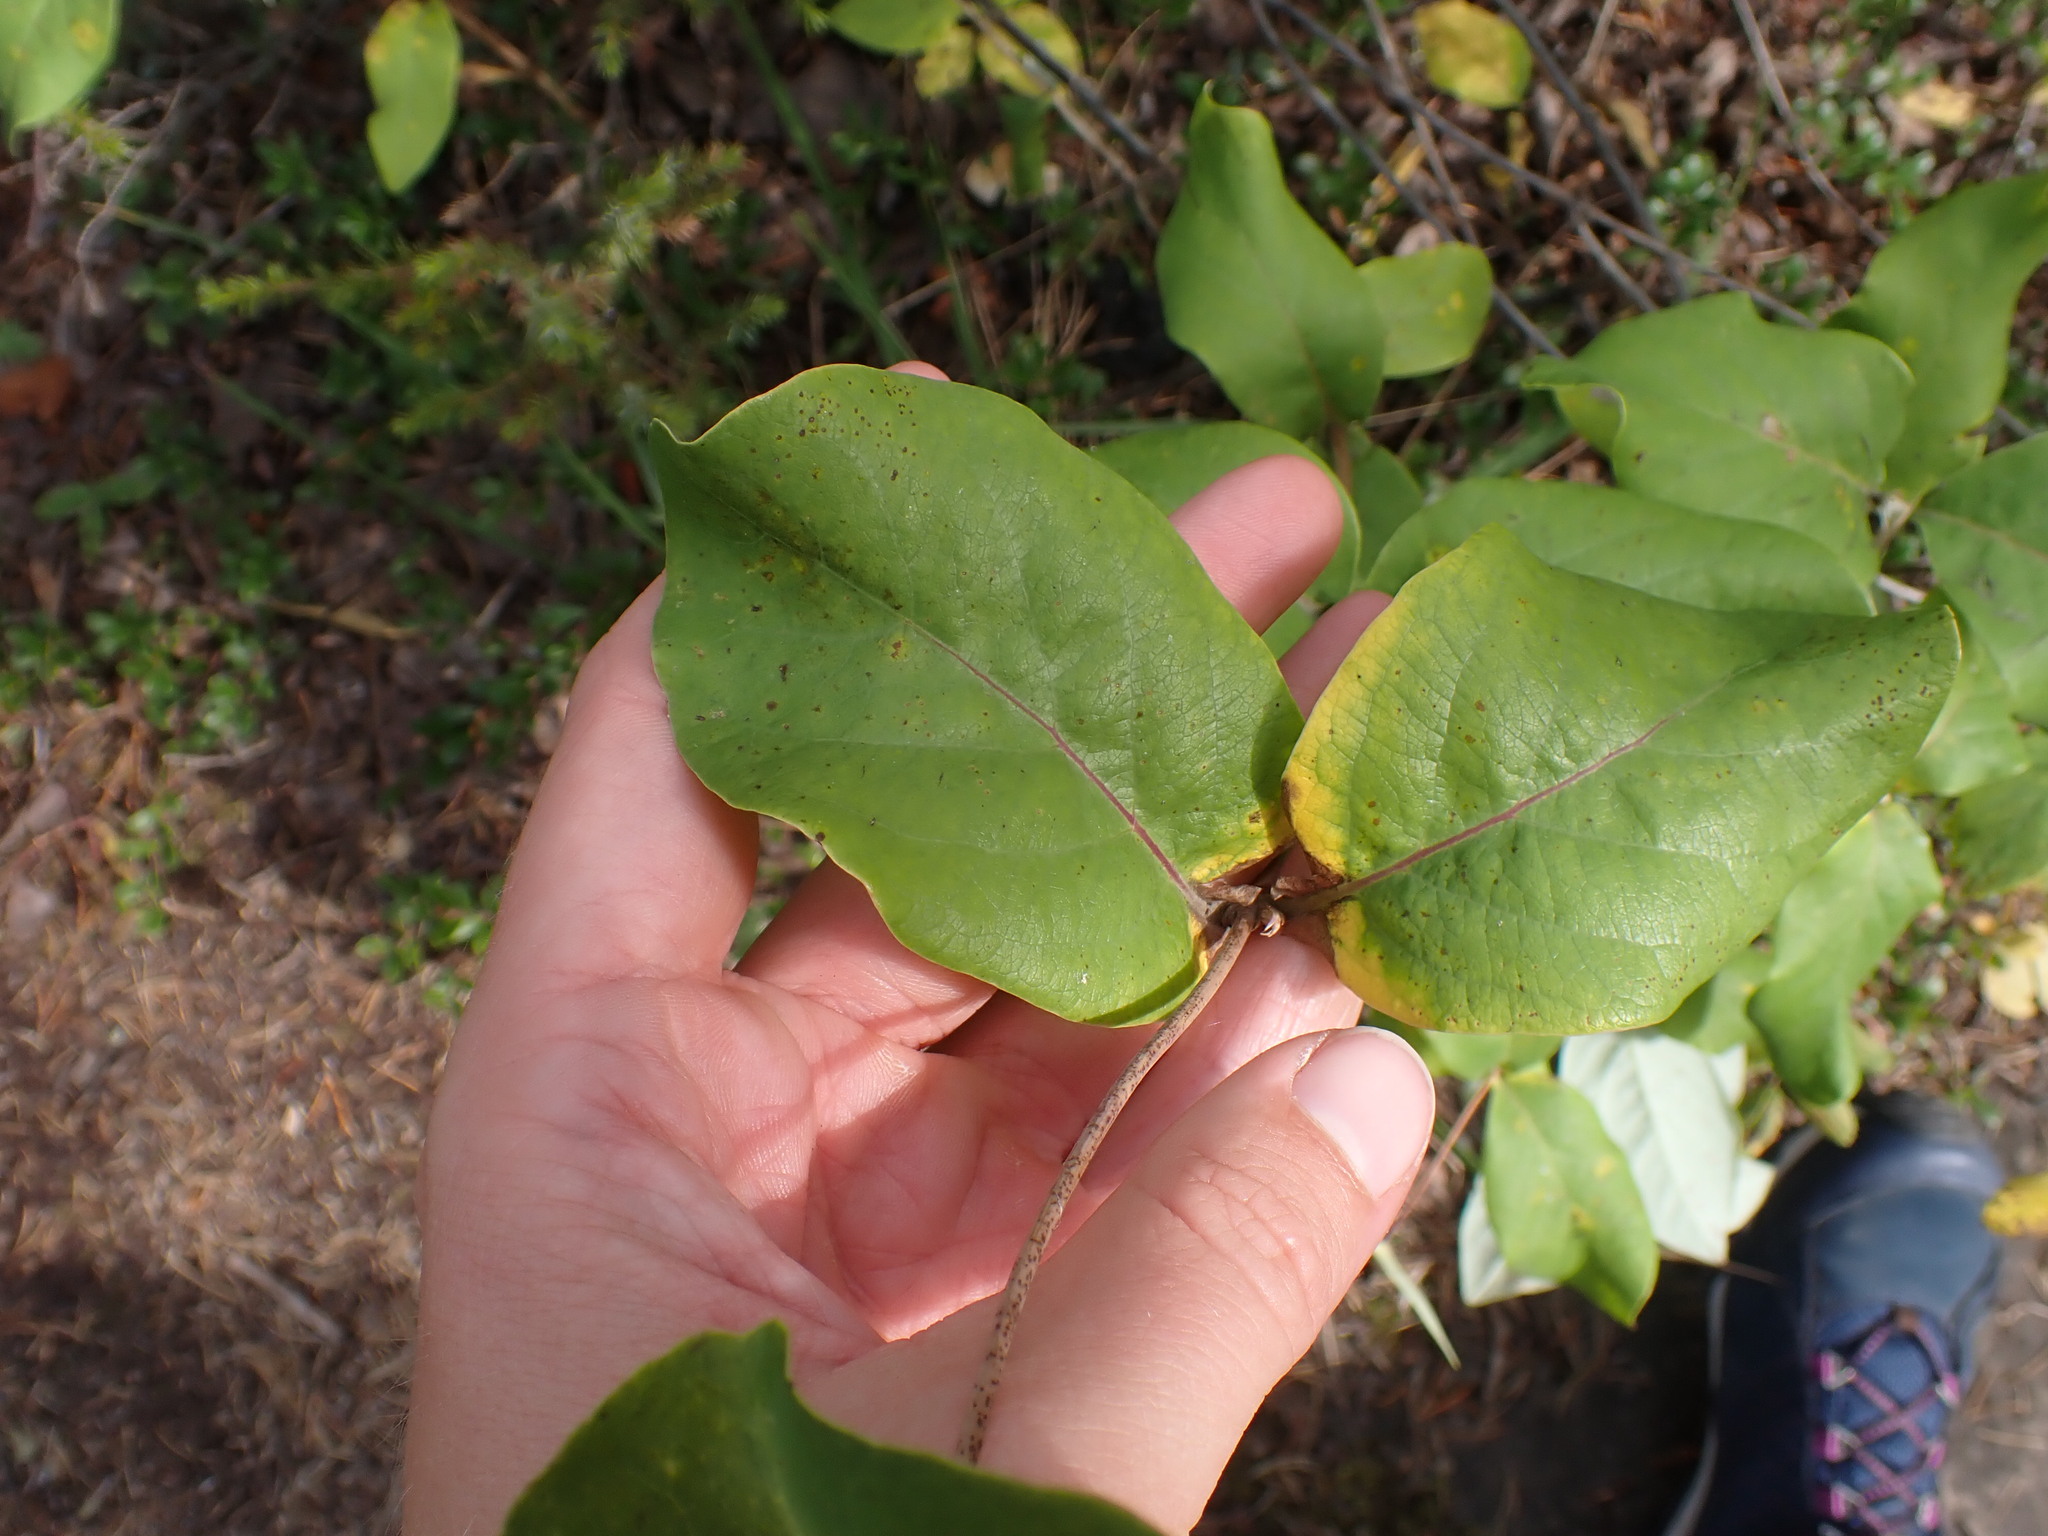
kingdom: Plantae
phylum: Tracheophyta
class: Magnoliopsida
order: Dipsacales
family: Caprifoliaceae
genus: Lonicera
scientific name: Lonicera dioica
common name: Limber honeysuckle
